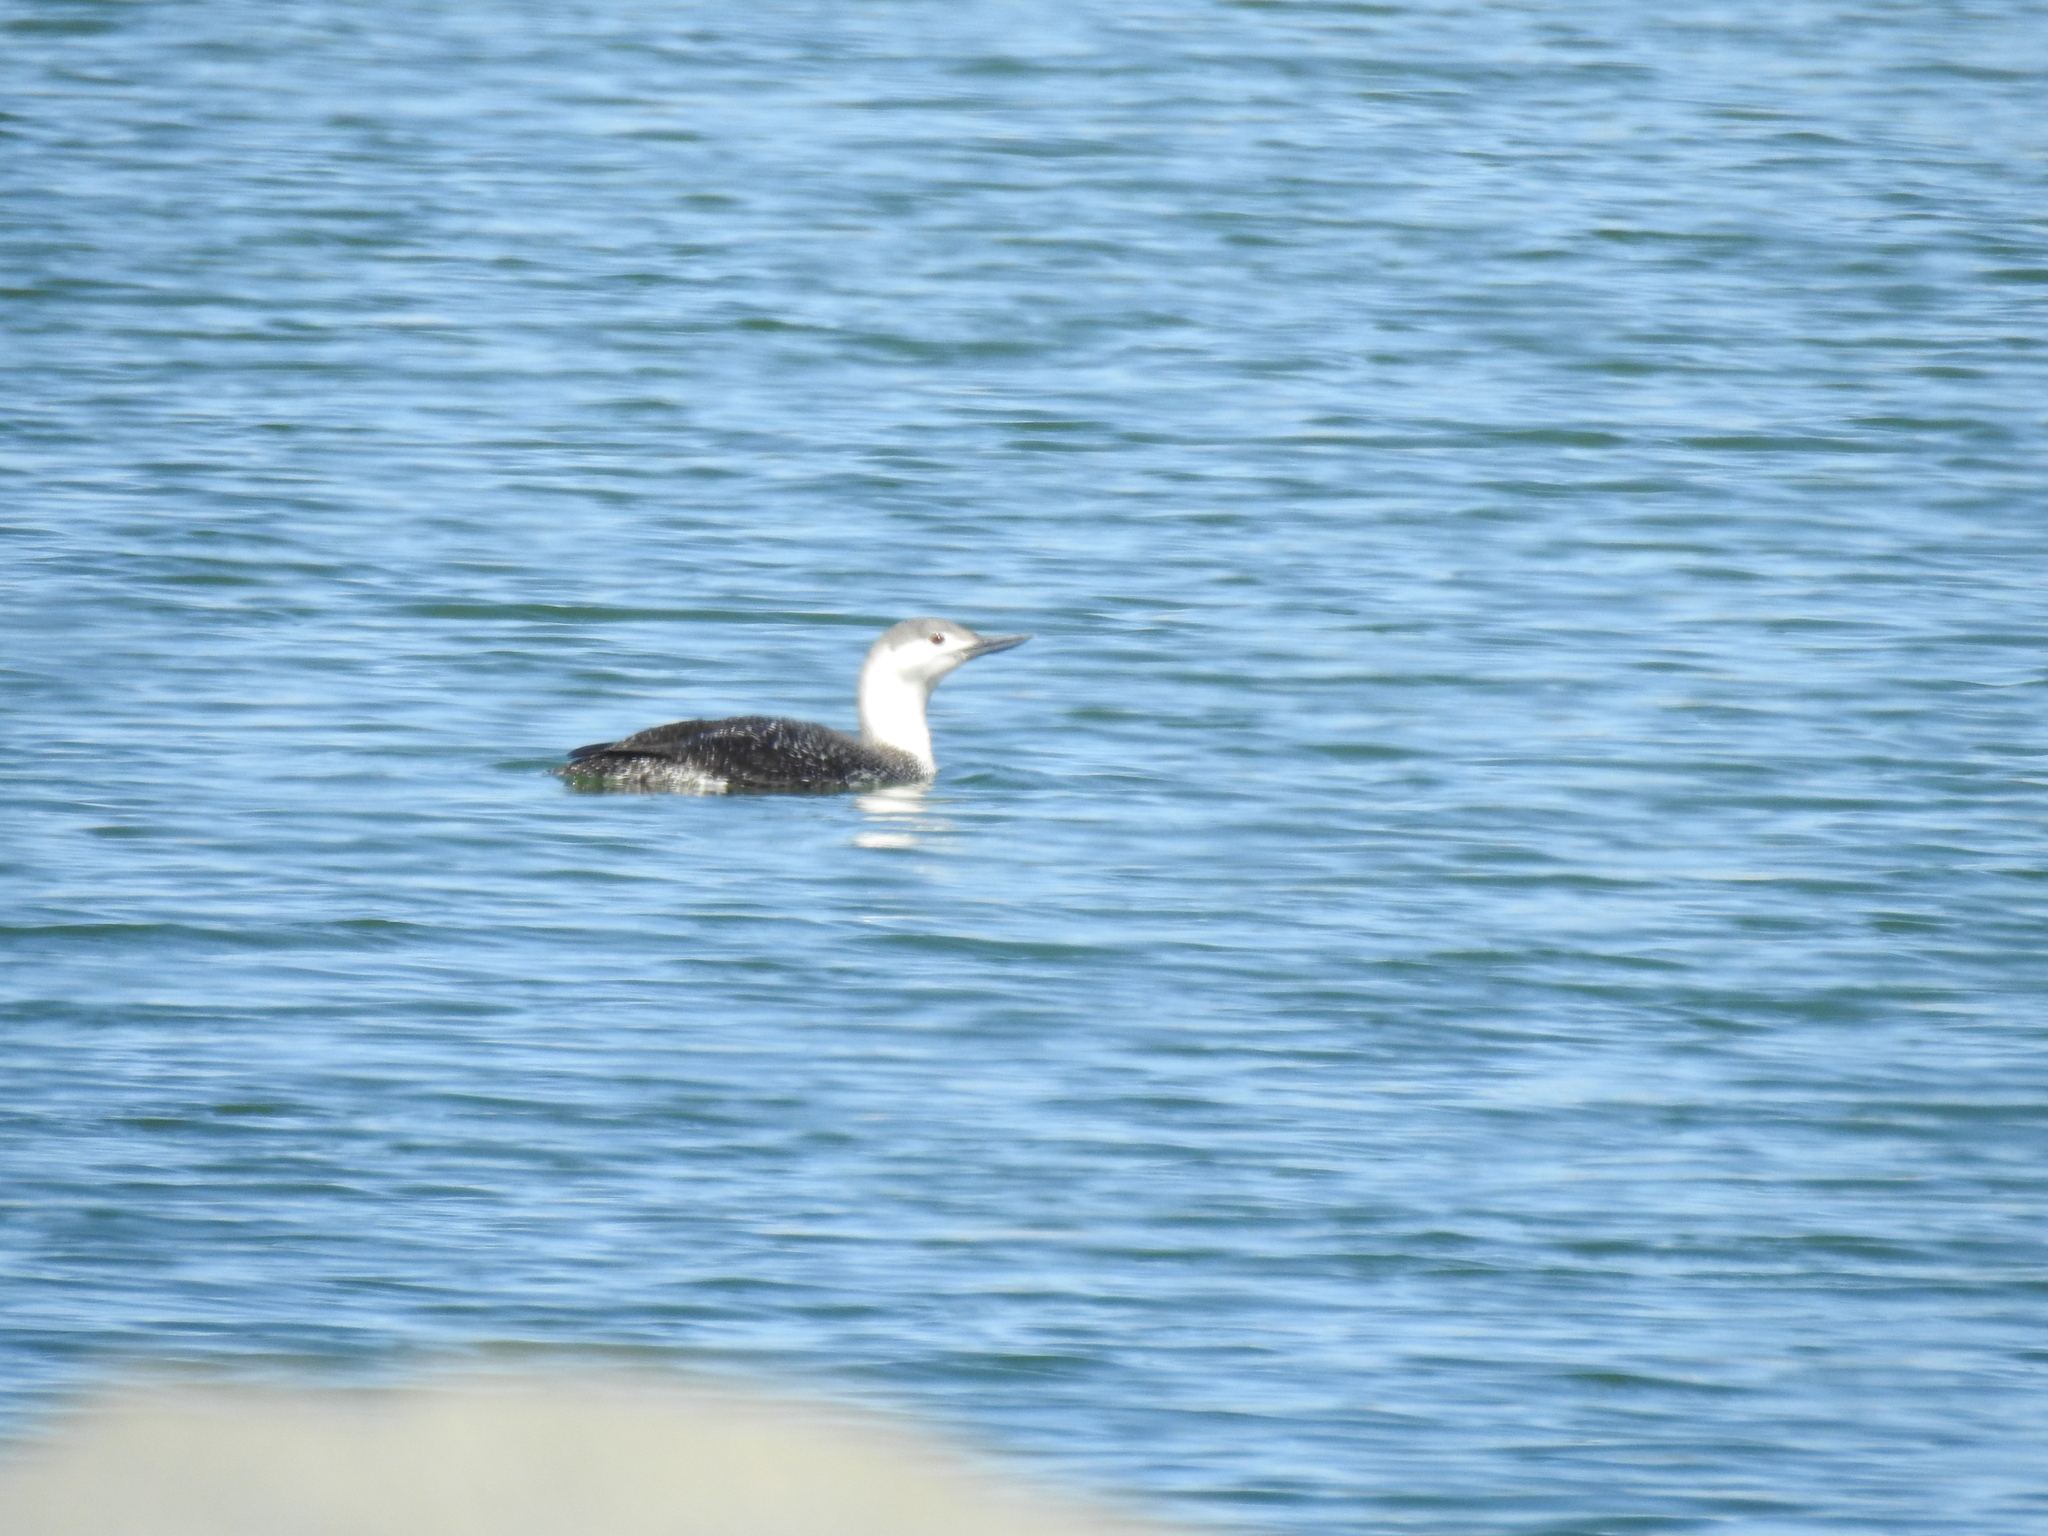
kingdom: Animalia
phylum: Chordata
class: Aves
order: Gaviiformes
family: Gaviidae
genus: Gavia
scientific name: Gavia stellata
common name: Red-throated loon
